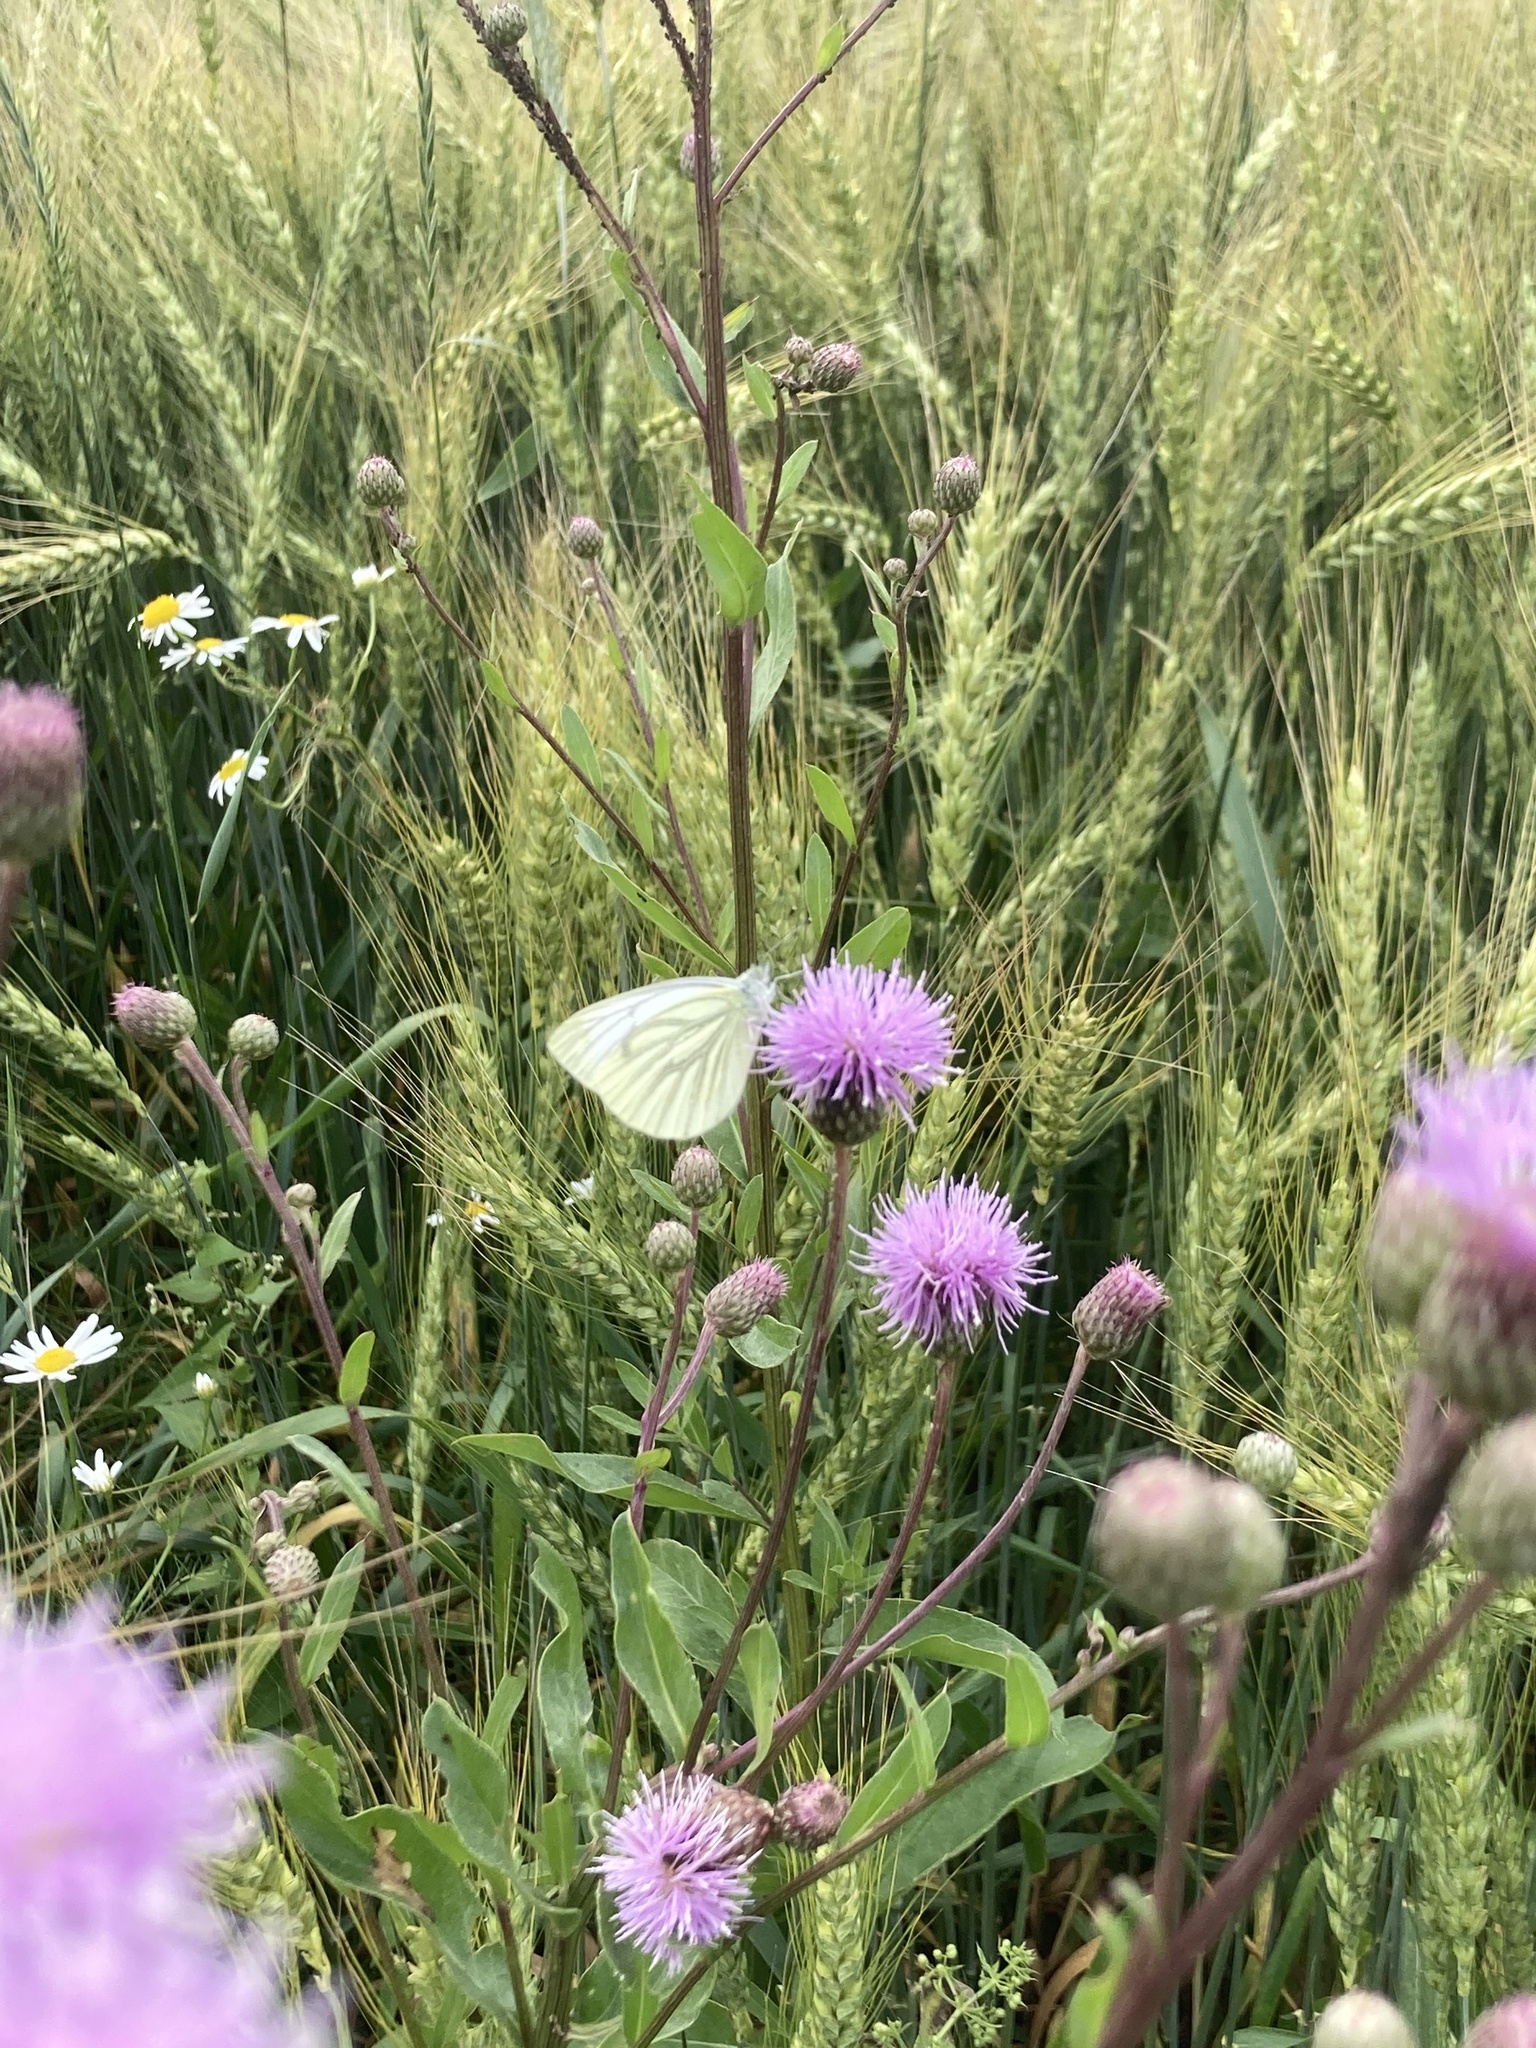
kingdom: Animalia
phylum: Arthropoda
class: Insecta
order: Lepidoptera
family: Pieridae
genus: Pieris
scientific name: Pieris napi
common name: Green-veined white
